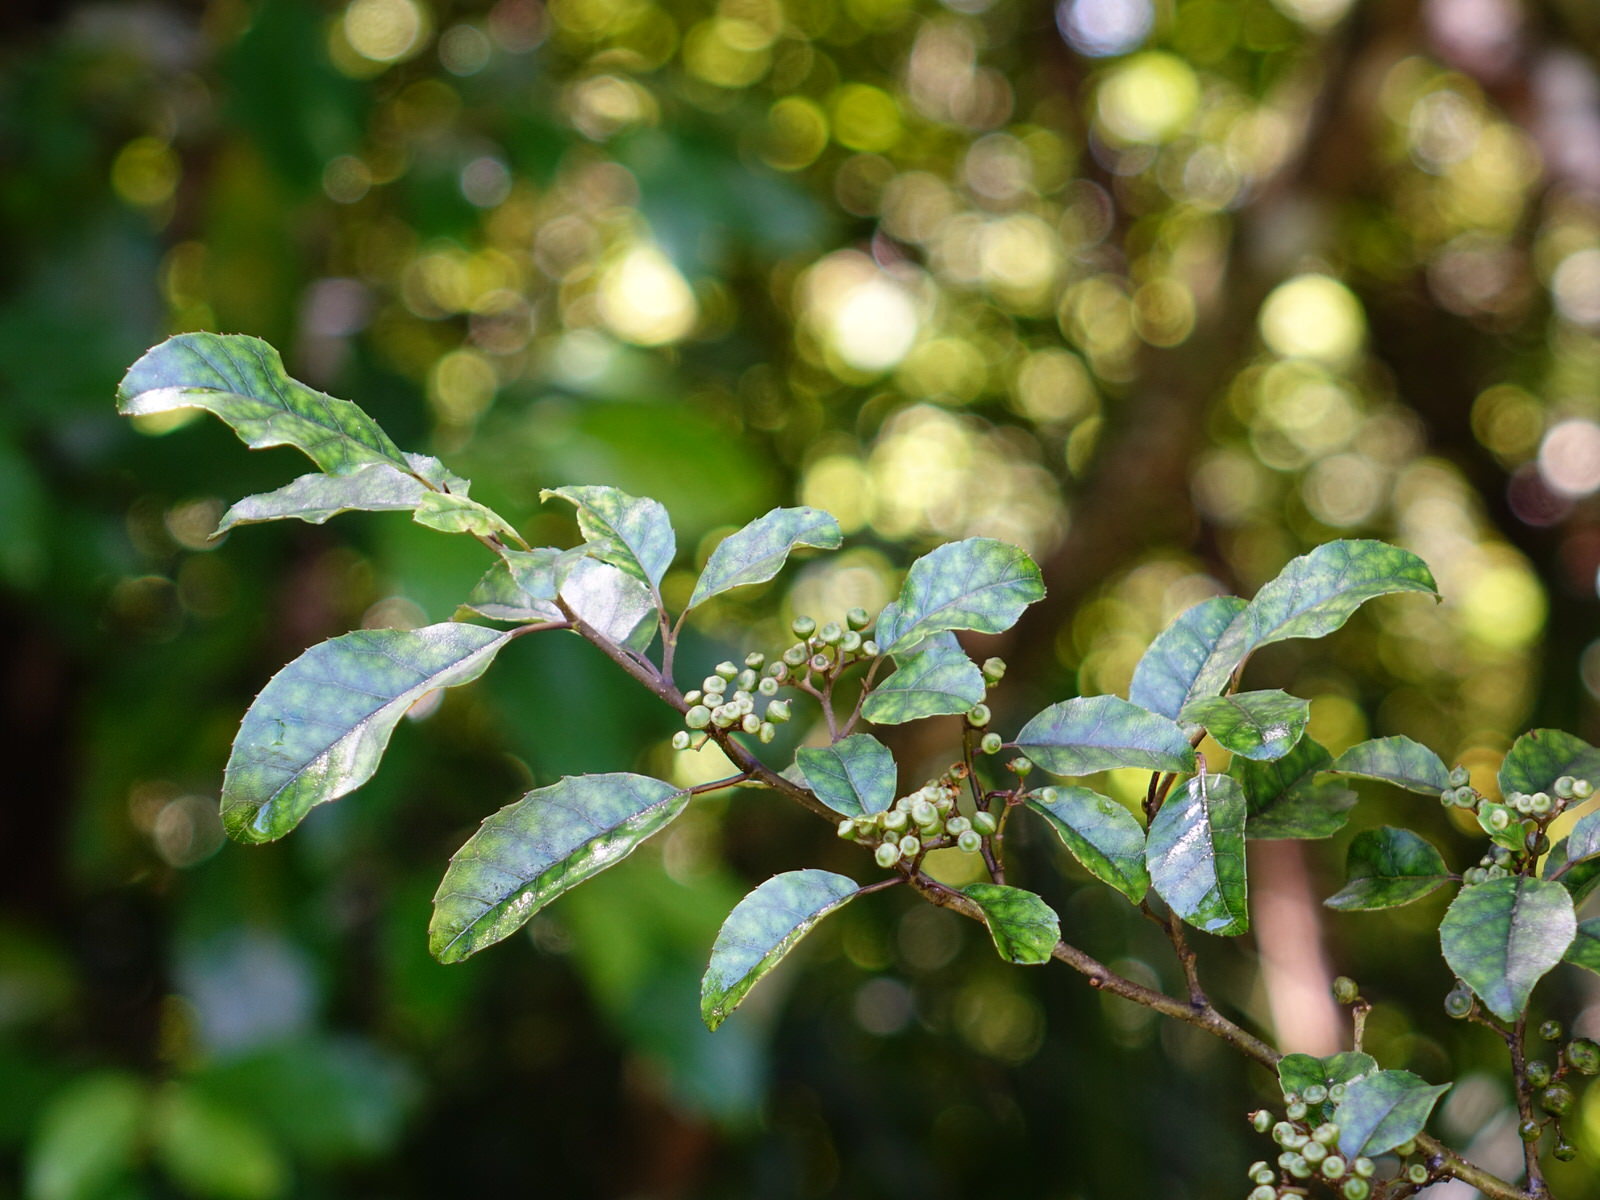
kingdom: Plantae
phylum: Tracheophyta
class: Magnoliopsida
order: Asterales
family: Rousseaceae
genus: Carpodetus
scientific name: Carpodetus serratus
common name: White mapau
